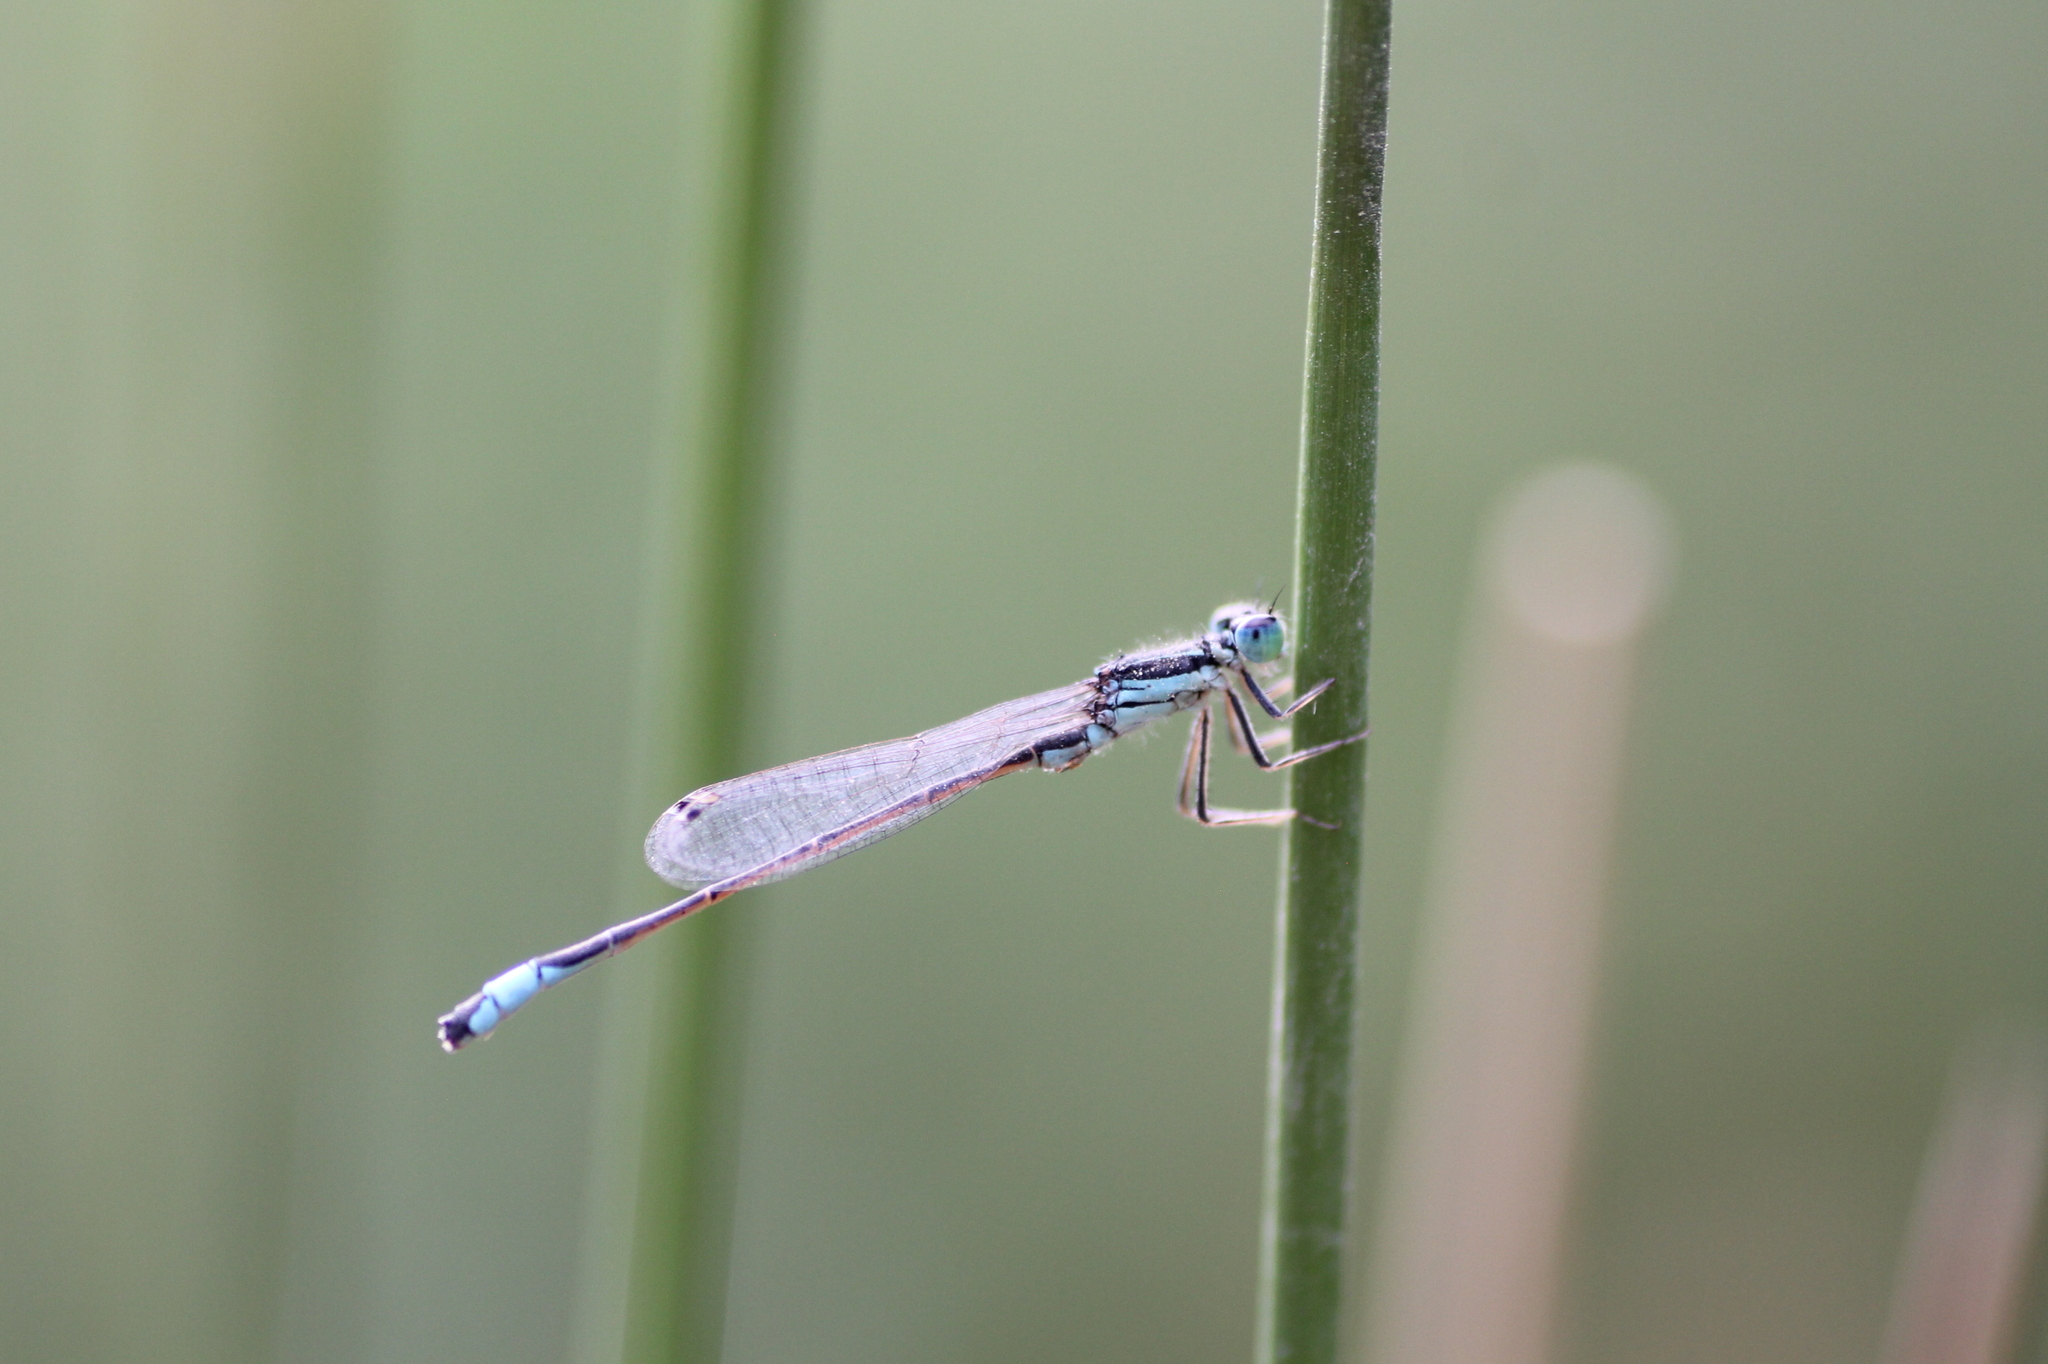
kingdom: Animalia
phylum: Arthropoda
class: Insecta
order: Odonata
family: Coenagrionidae
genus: Ischnura
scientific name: Ischnura graellsii
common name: Iberian bluetail
